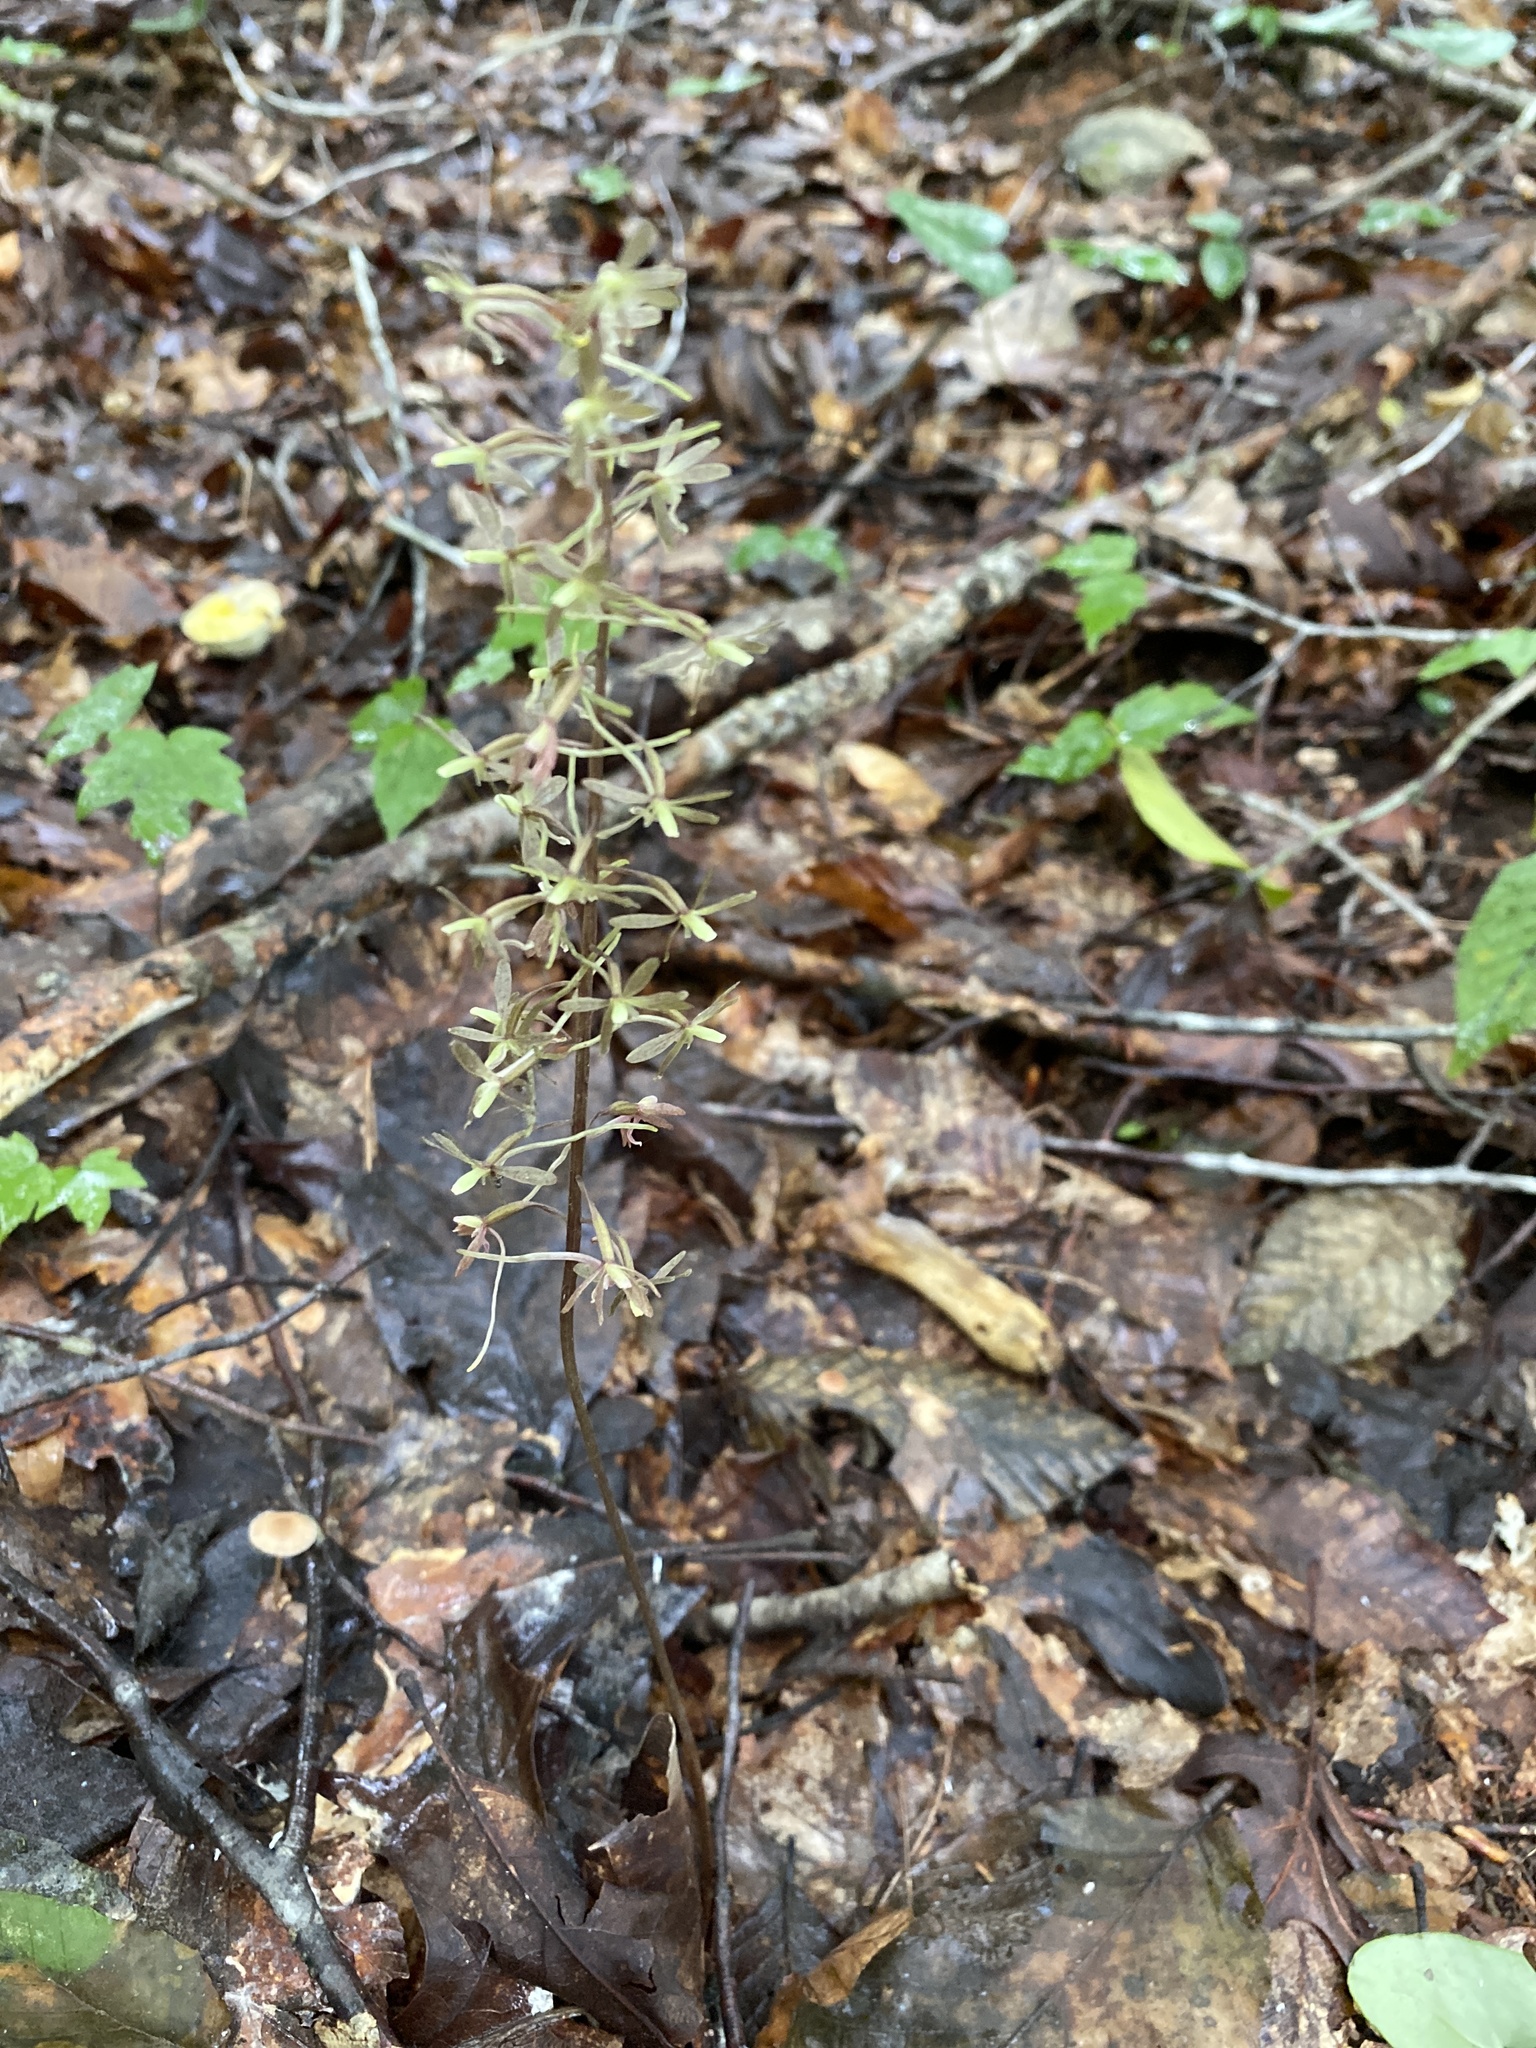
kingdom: Plantae
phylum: Tracheophyta
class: Liliopsida
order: Asparagales
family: Orchidaceae
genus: Tipularia
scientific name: Tipularia discolor
